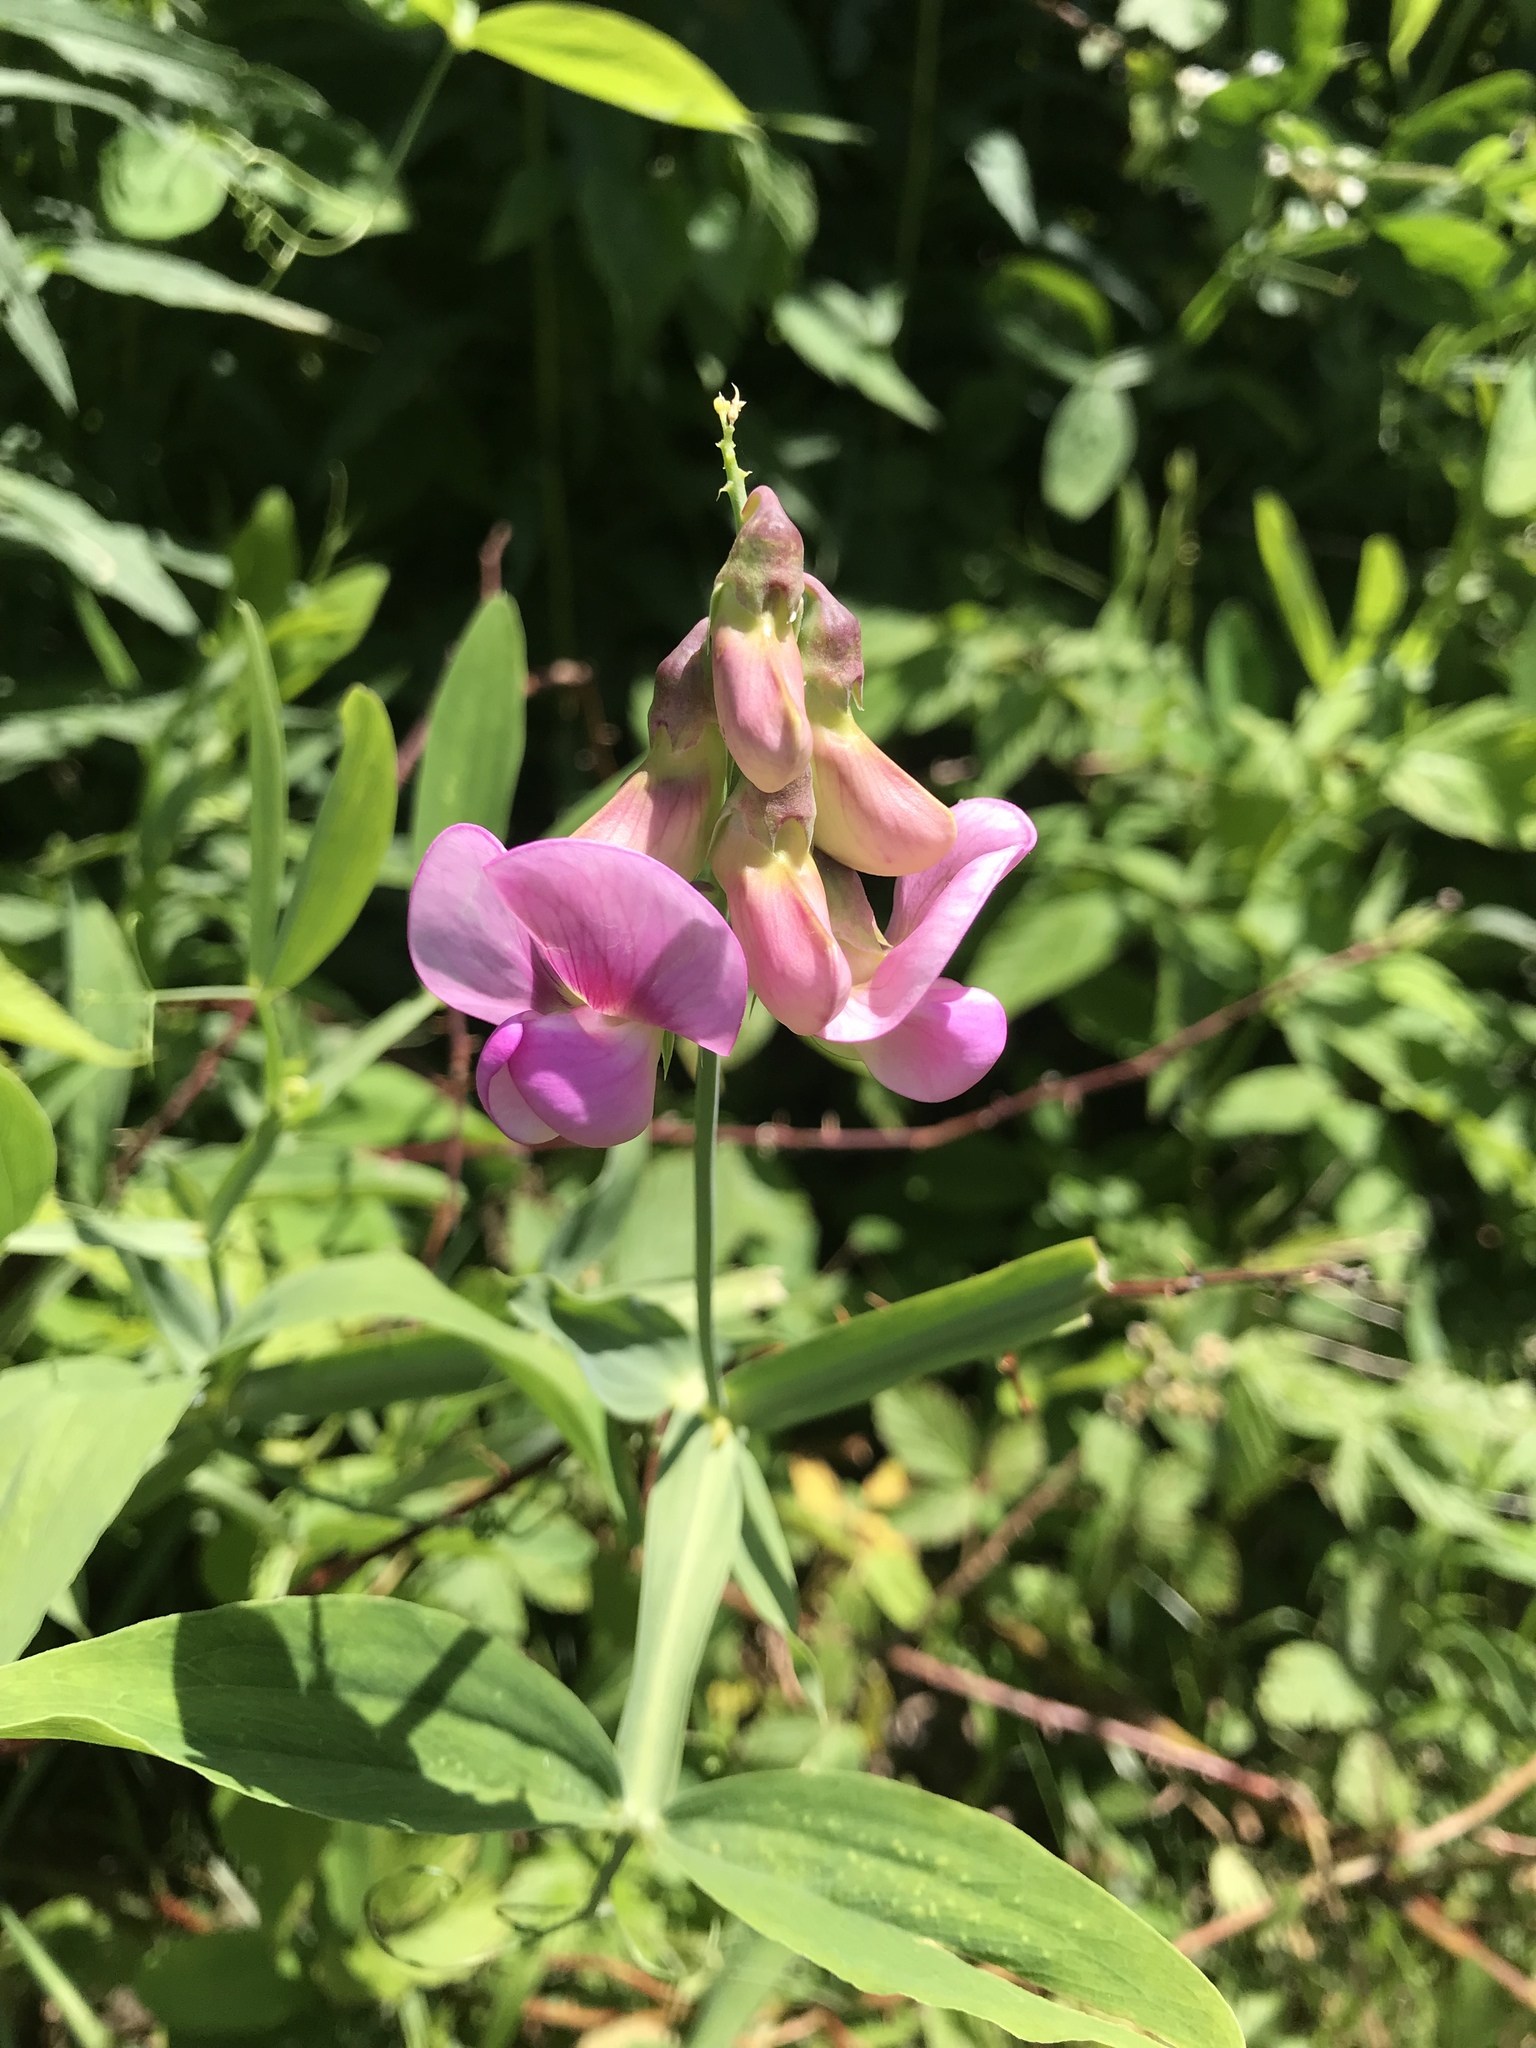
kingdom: Plantae
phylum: Tracheophyta
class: Magnoliopsida
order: Fabales
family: Fabaceae
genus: Lathyrus
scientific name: Lathyrus latifolius
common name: Perennial pea
